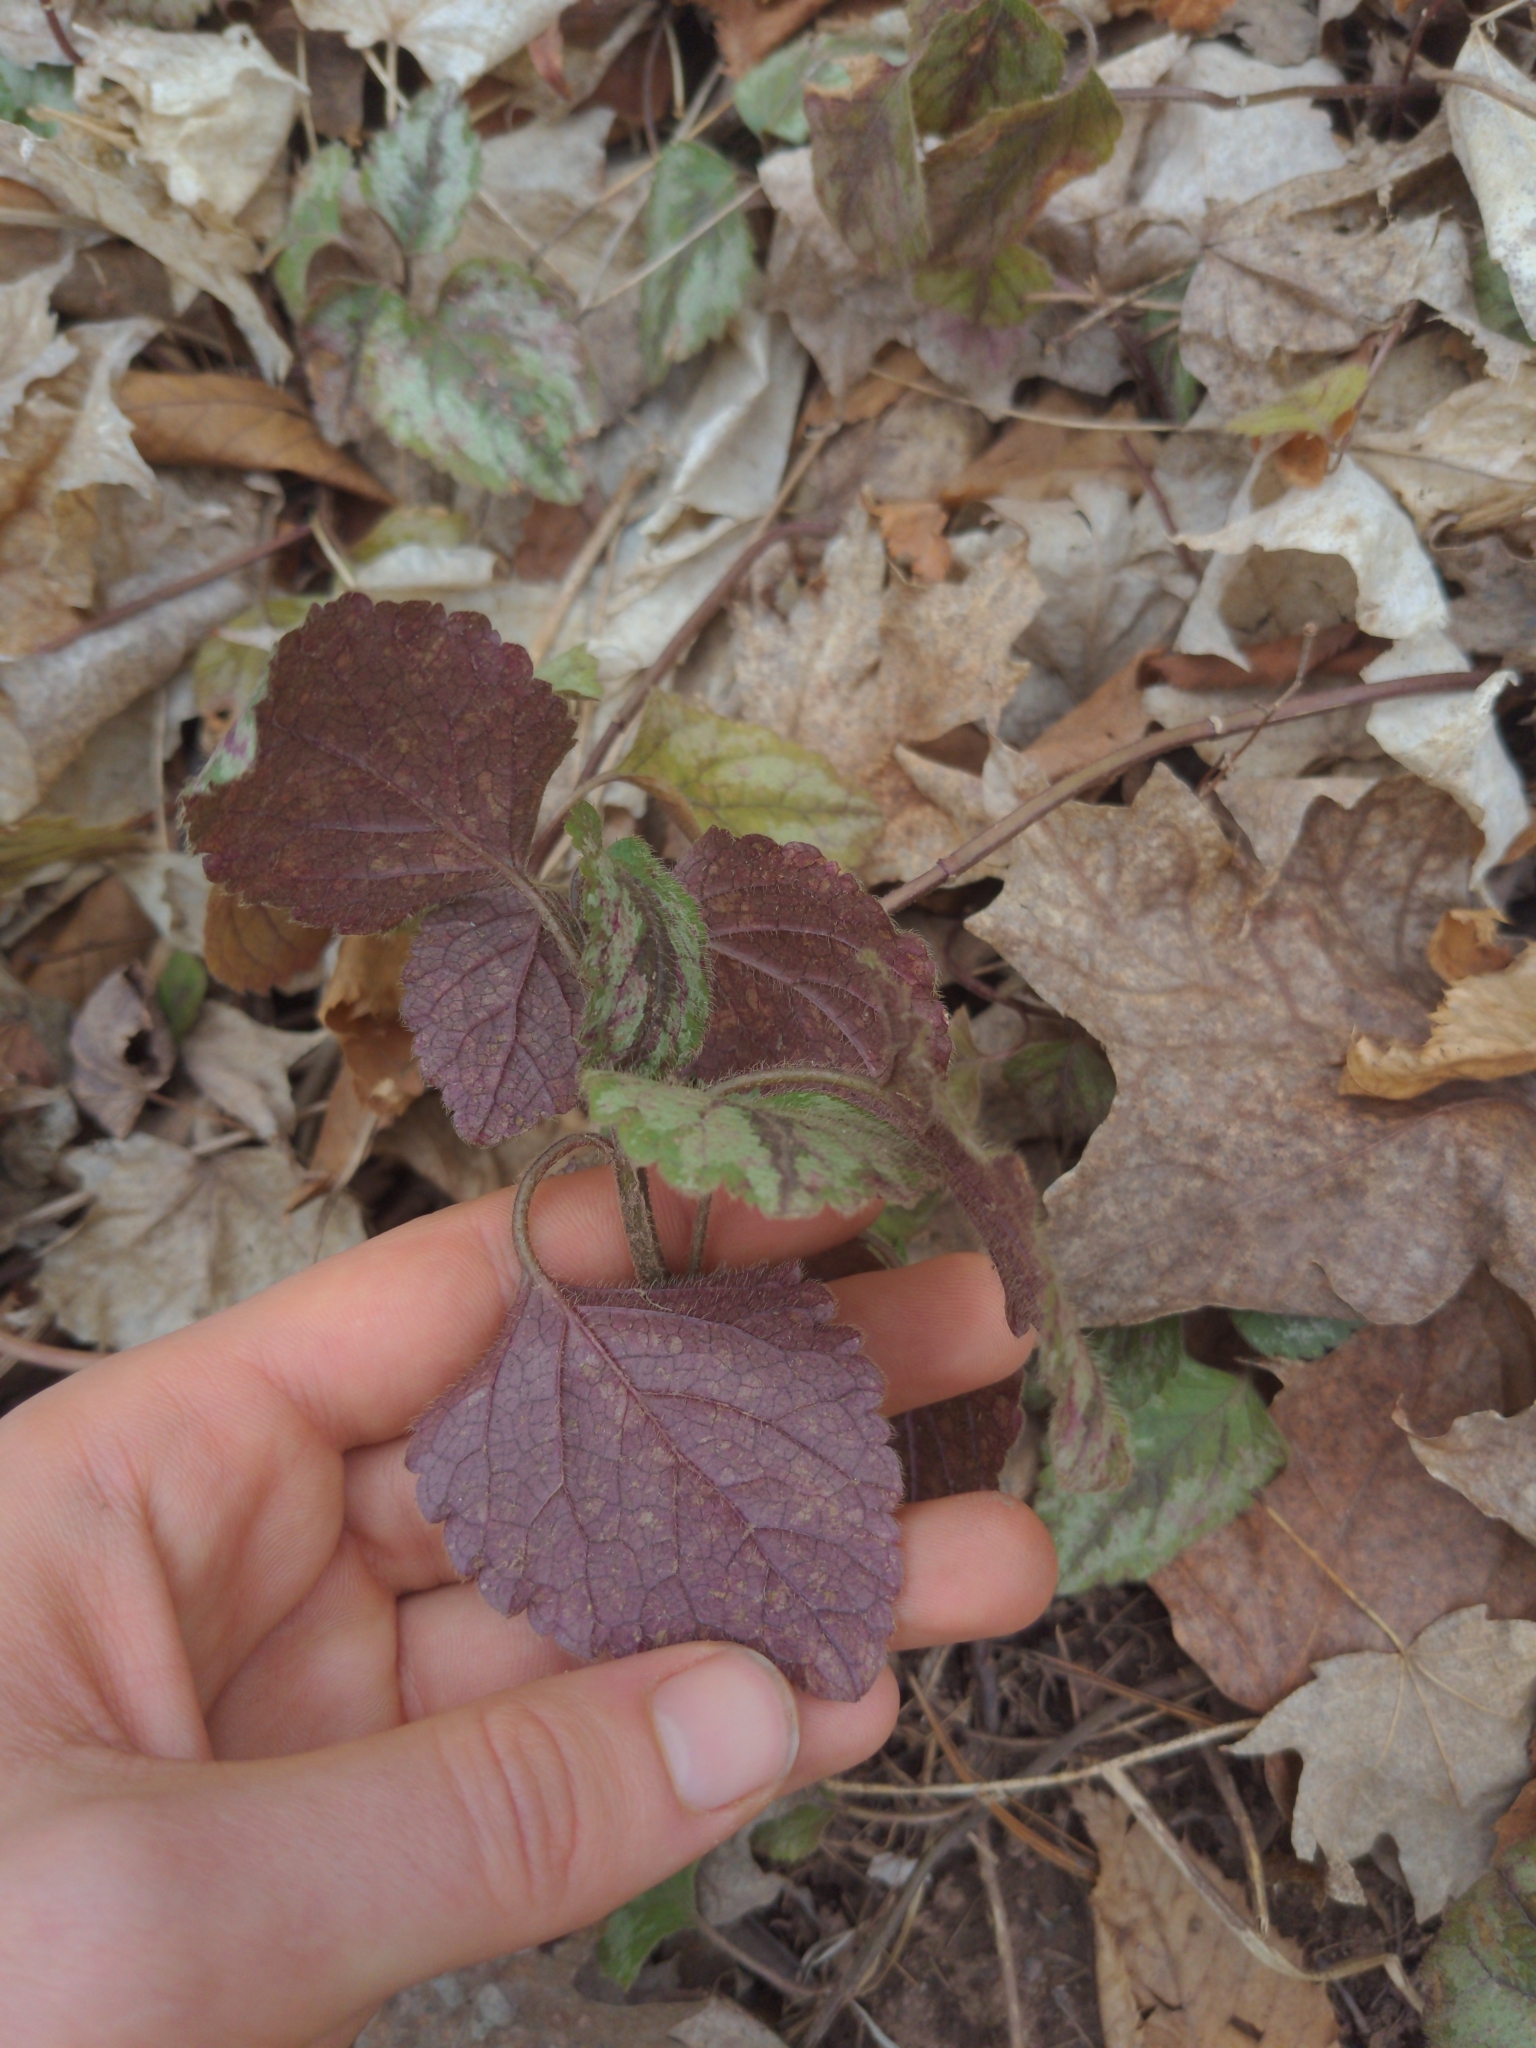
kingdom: Plantae
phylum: Tracheophyta
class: Magnoliopsida
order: Lamiales
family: Lamiaceae
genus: Lamium
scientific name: Lamium galeobdolon
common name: Yellow archangel
